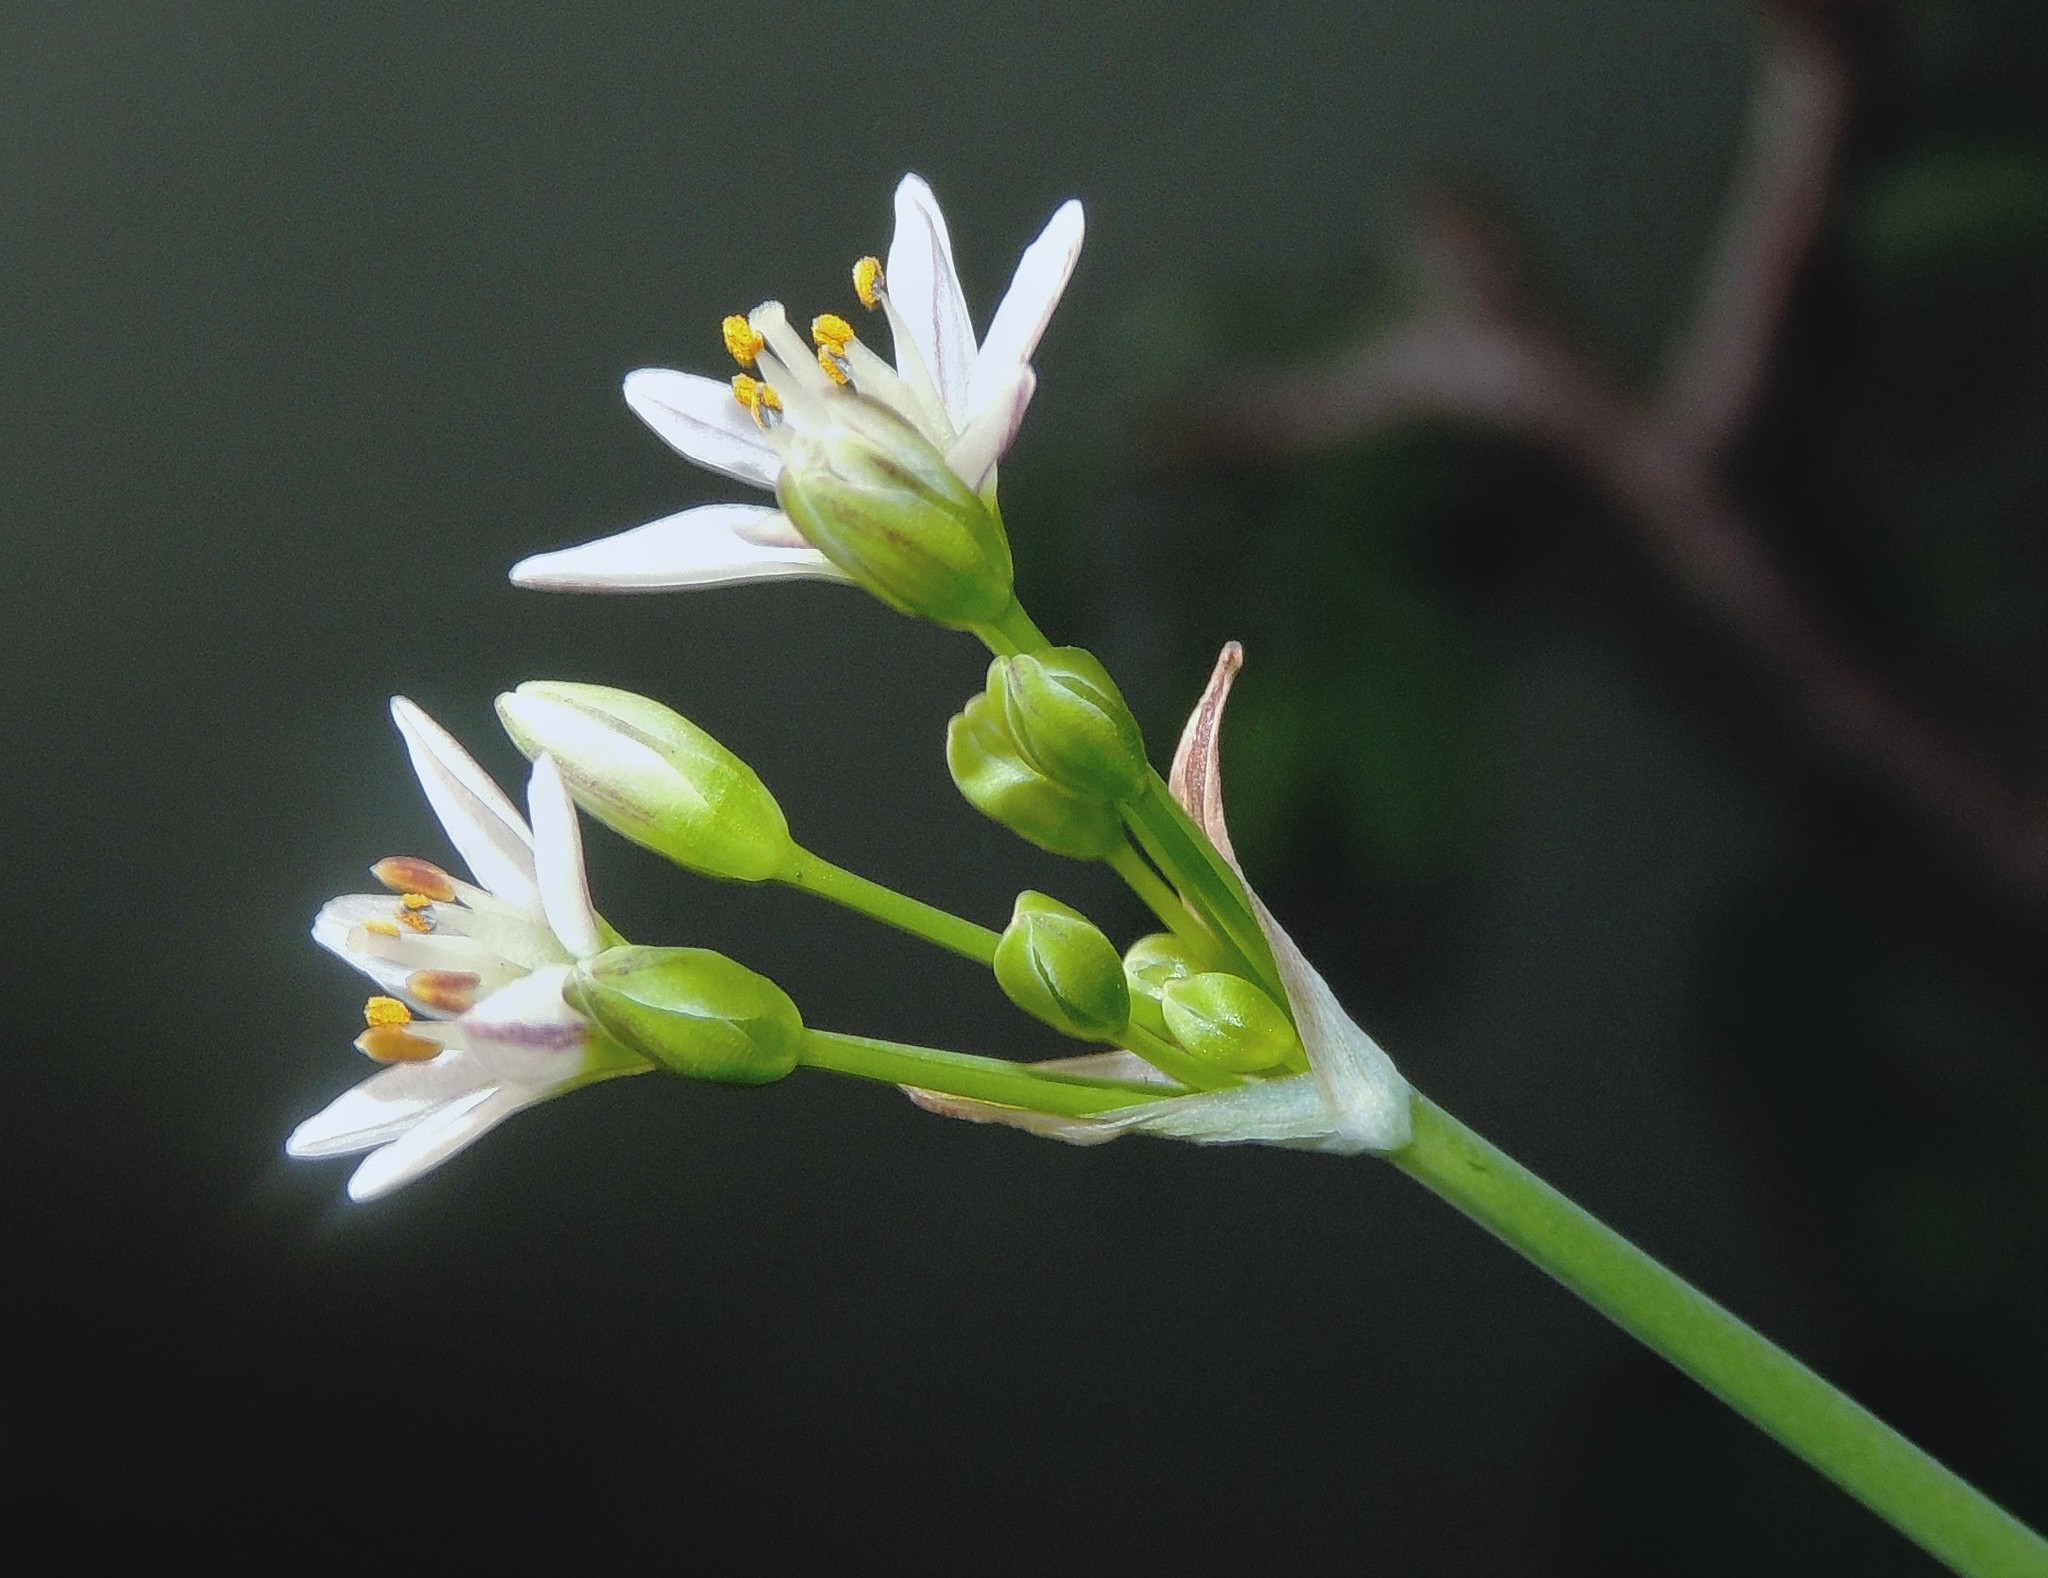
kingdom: Plantae
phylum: Tracheophyta
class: Liliopsida
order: Asparagales
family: Amaryllidaceae
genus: Nothoscordum
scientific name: Nothoscordum bivalve
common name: Crow-poison
